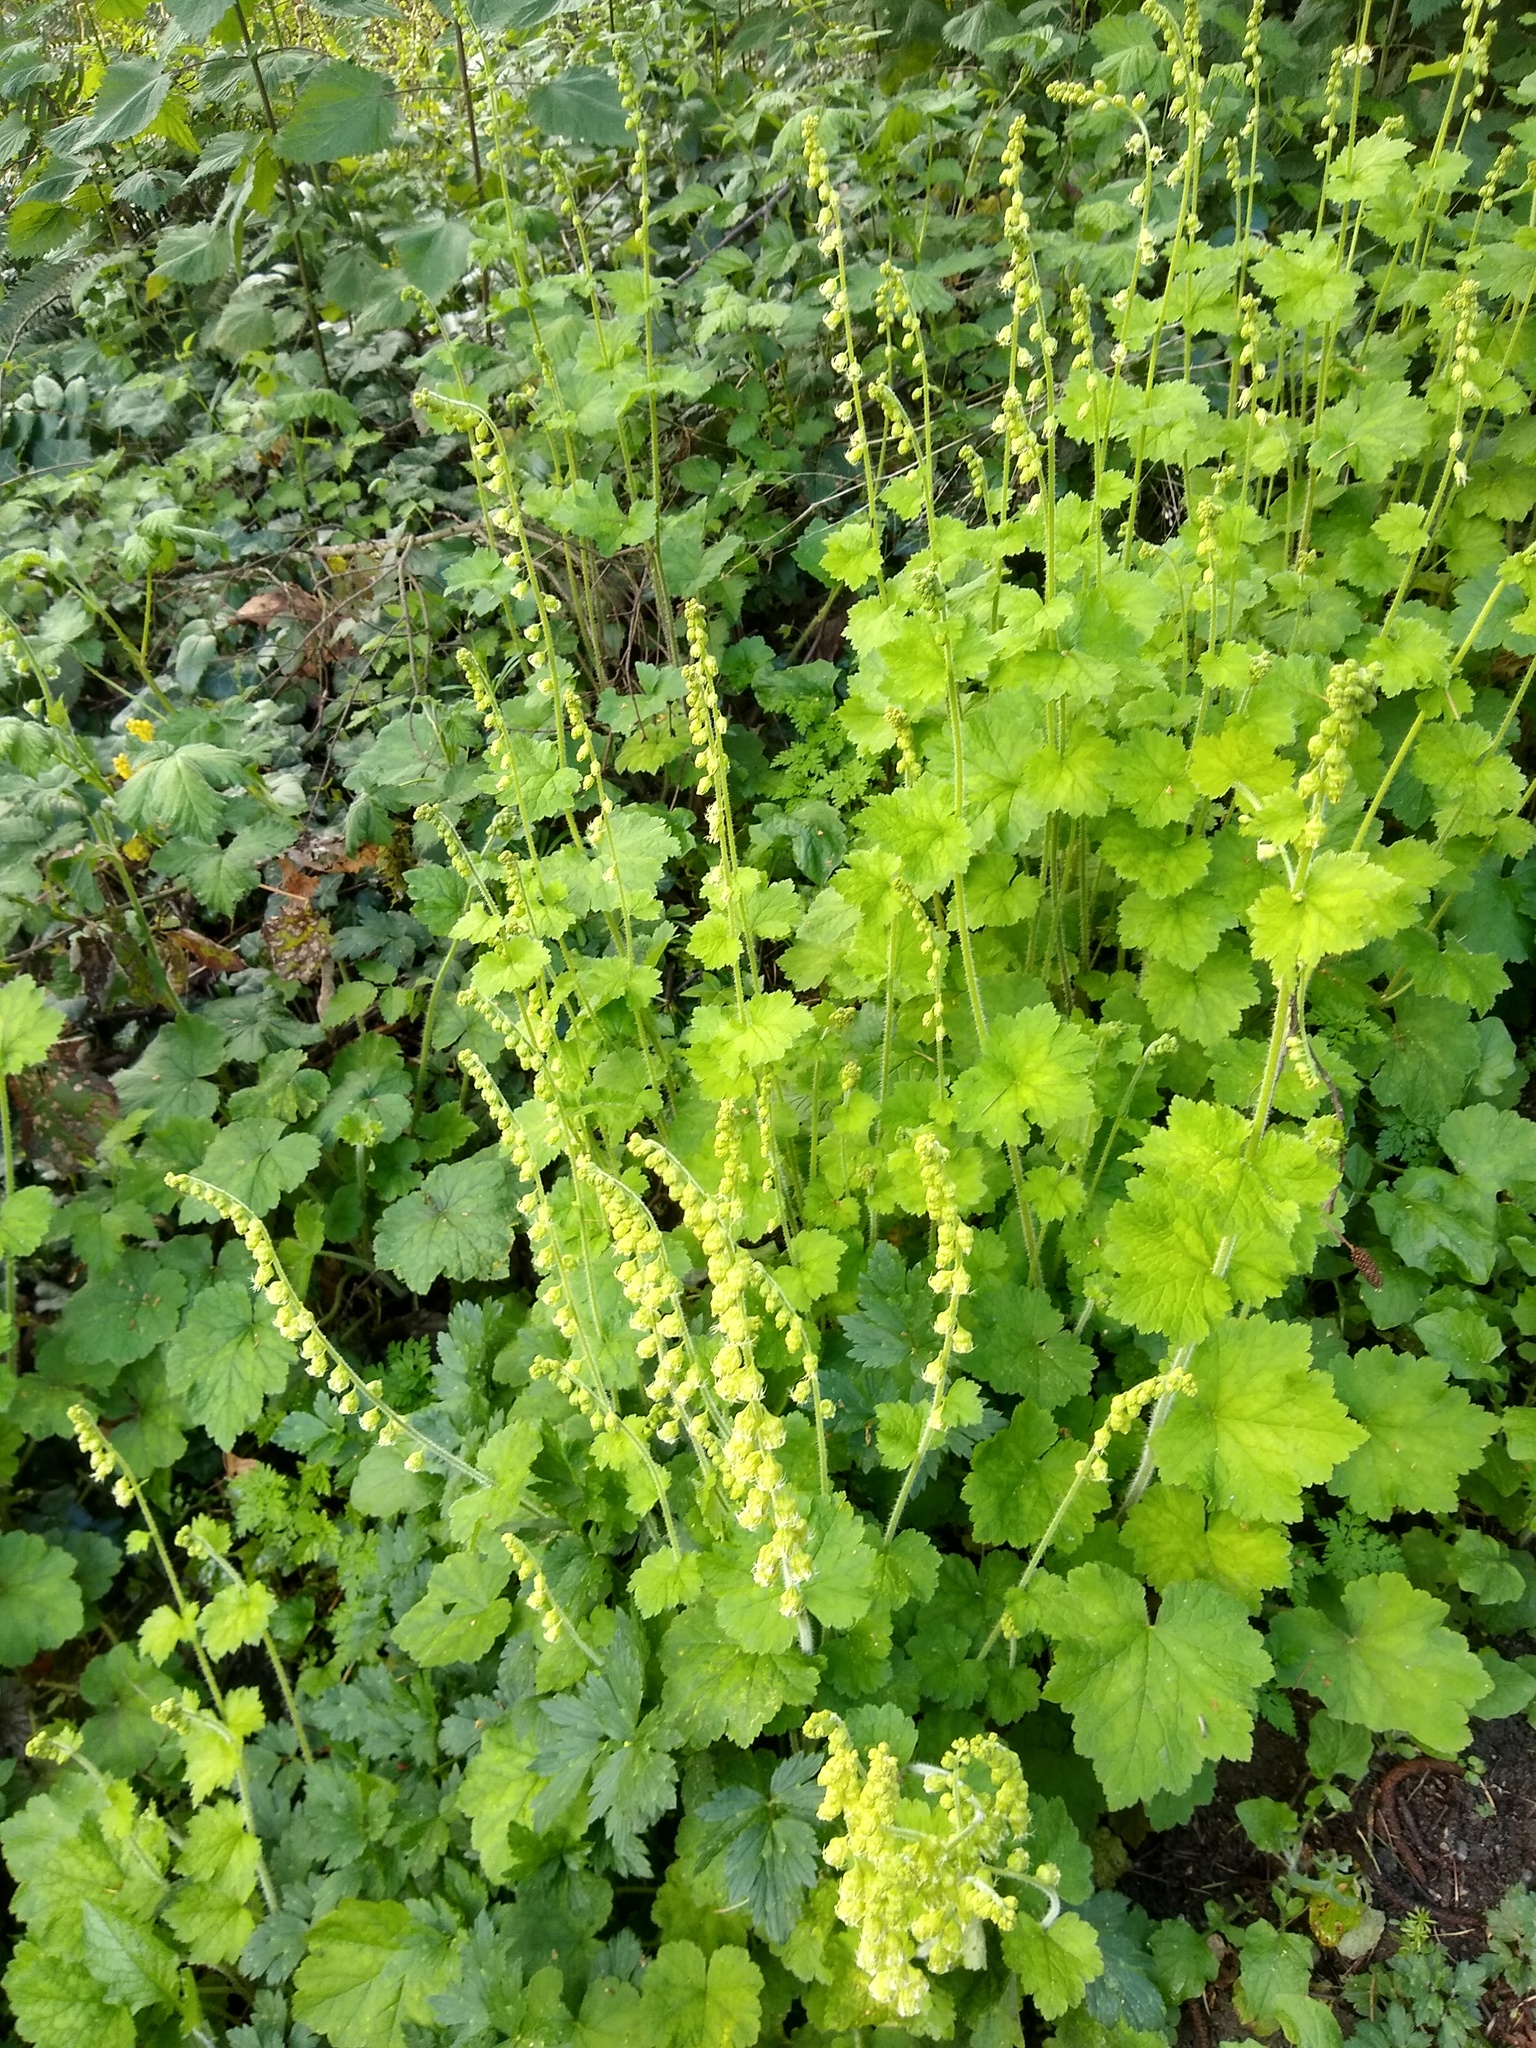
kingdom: Plantae
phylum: Tracheophyta
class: Magnoliopsida
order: Saxifragales
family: Saxifragaceae
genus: Tellima
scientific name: Tellima grandiflora
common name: Fringecups
